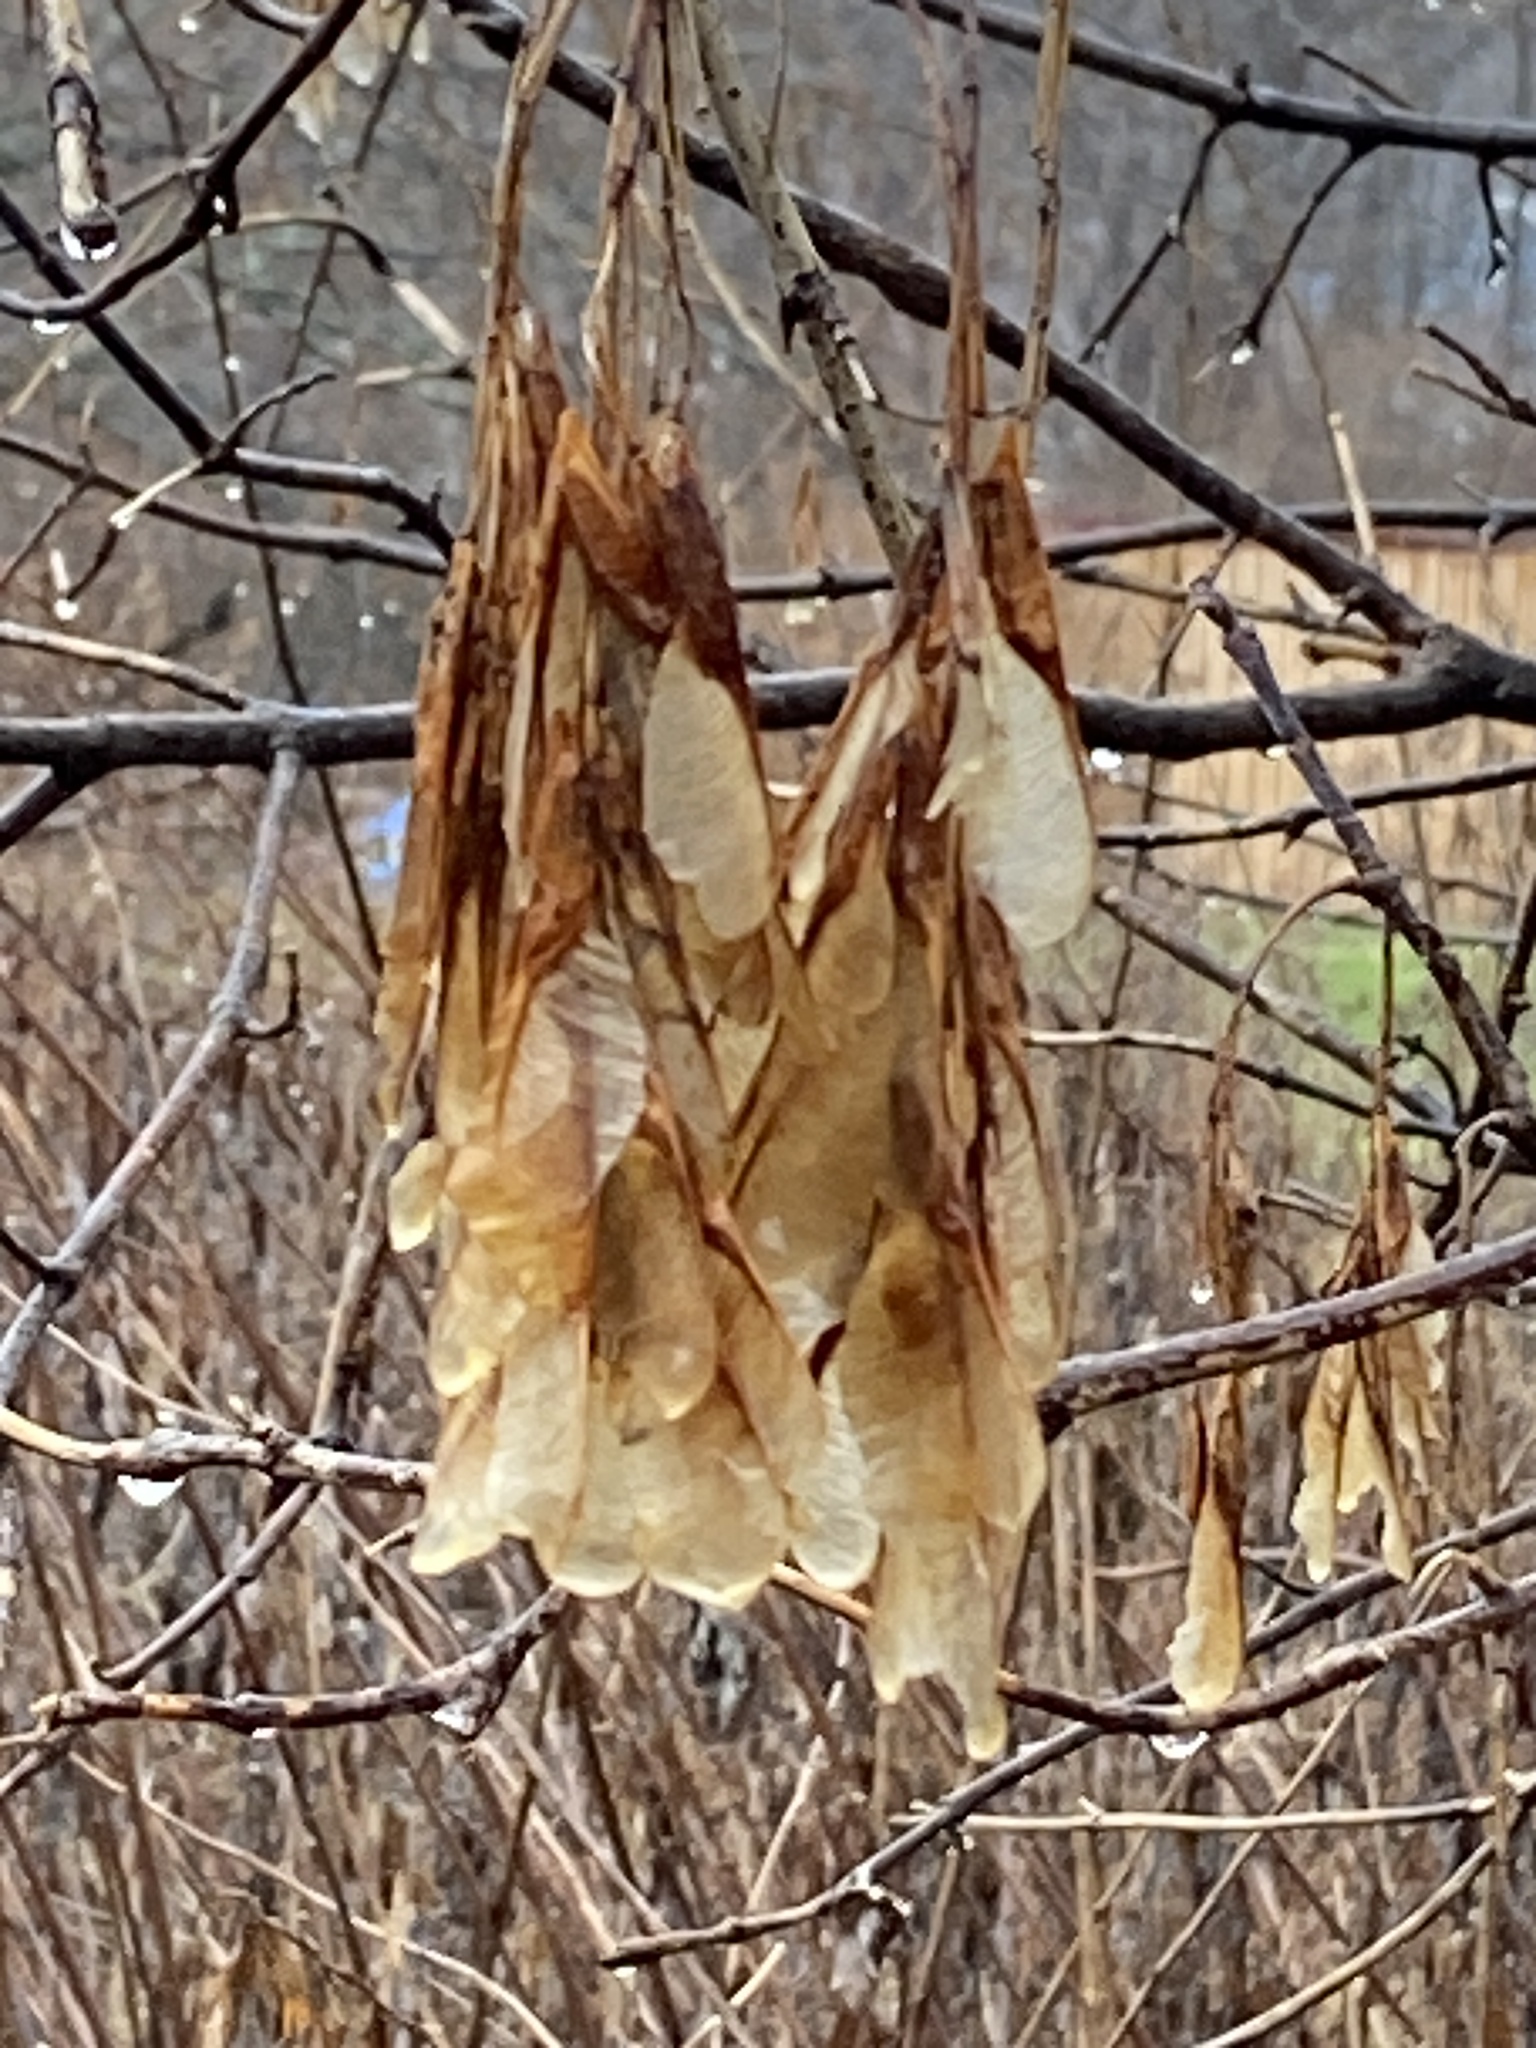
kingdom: Plantae
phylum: Tracheophyta
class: Magnoliopsida
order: Sapindales
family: Sapindaceae
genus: Acer
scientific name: Acer negundo
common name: Ashleaf maple
